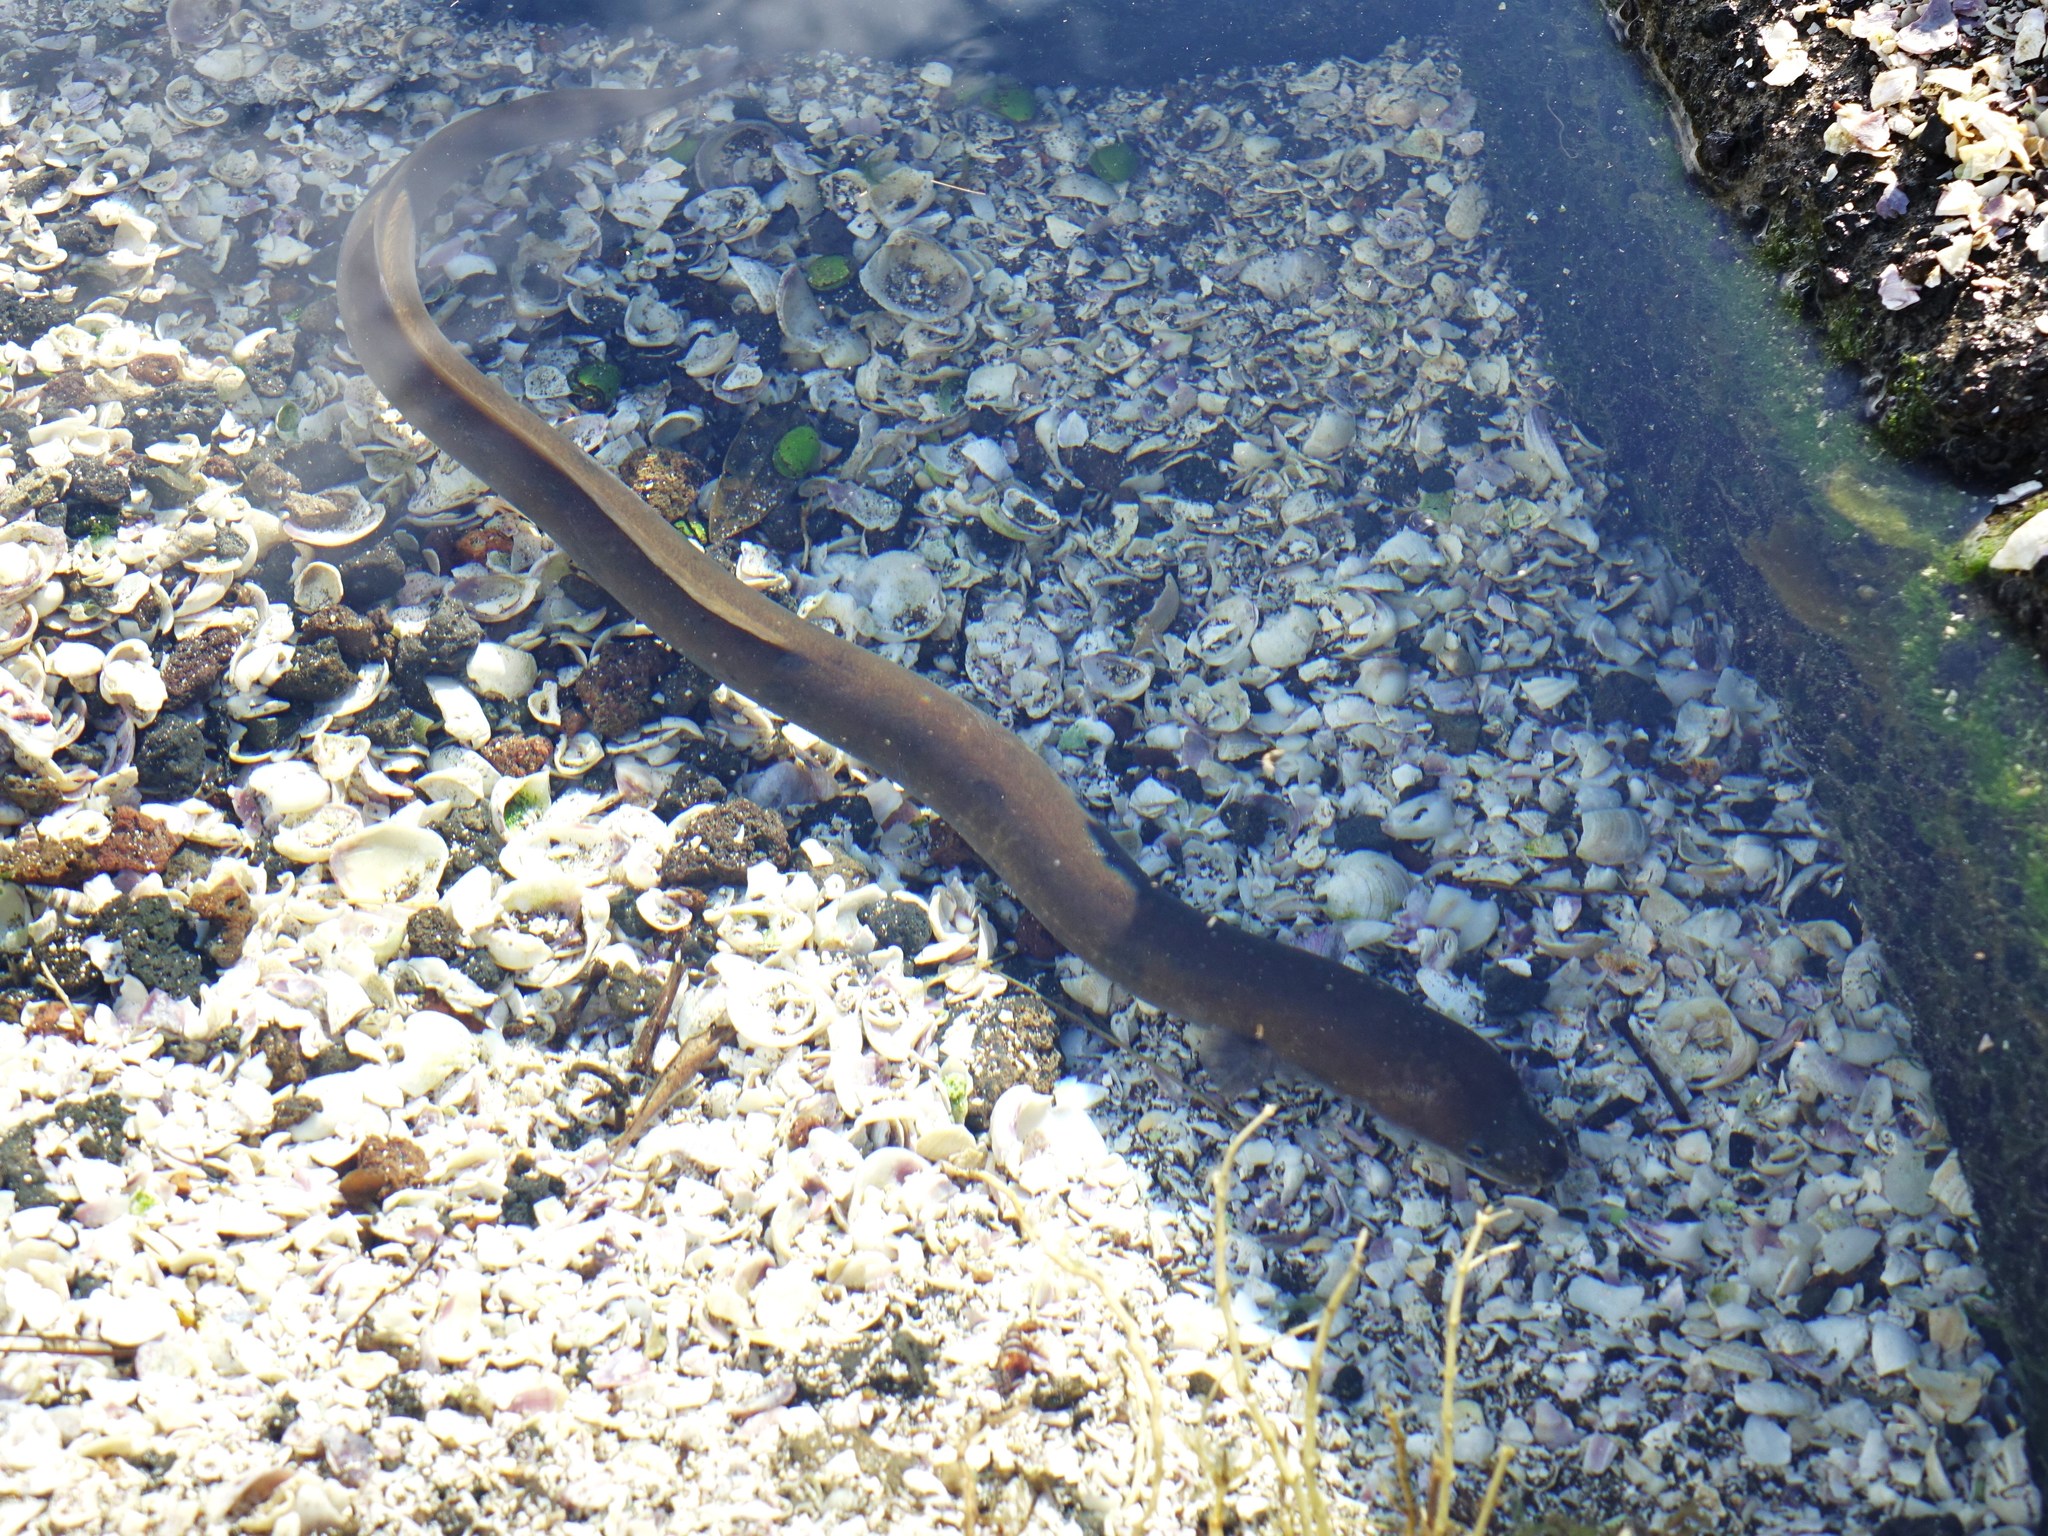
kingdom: Animalia
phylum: Chordata
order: Anguilliformes
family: Anguillidae
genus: Anguilla
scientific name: Anguilla australis
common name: Shortfin eel
